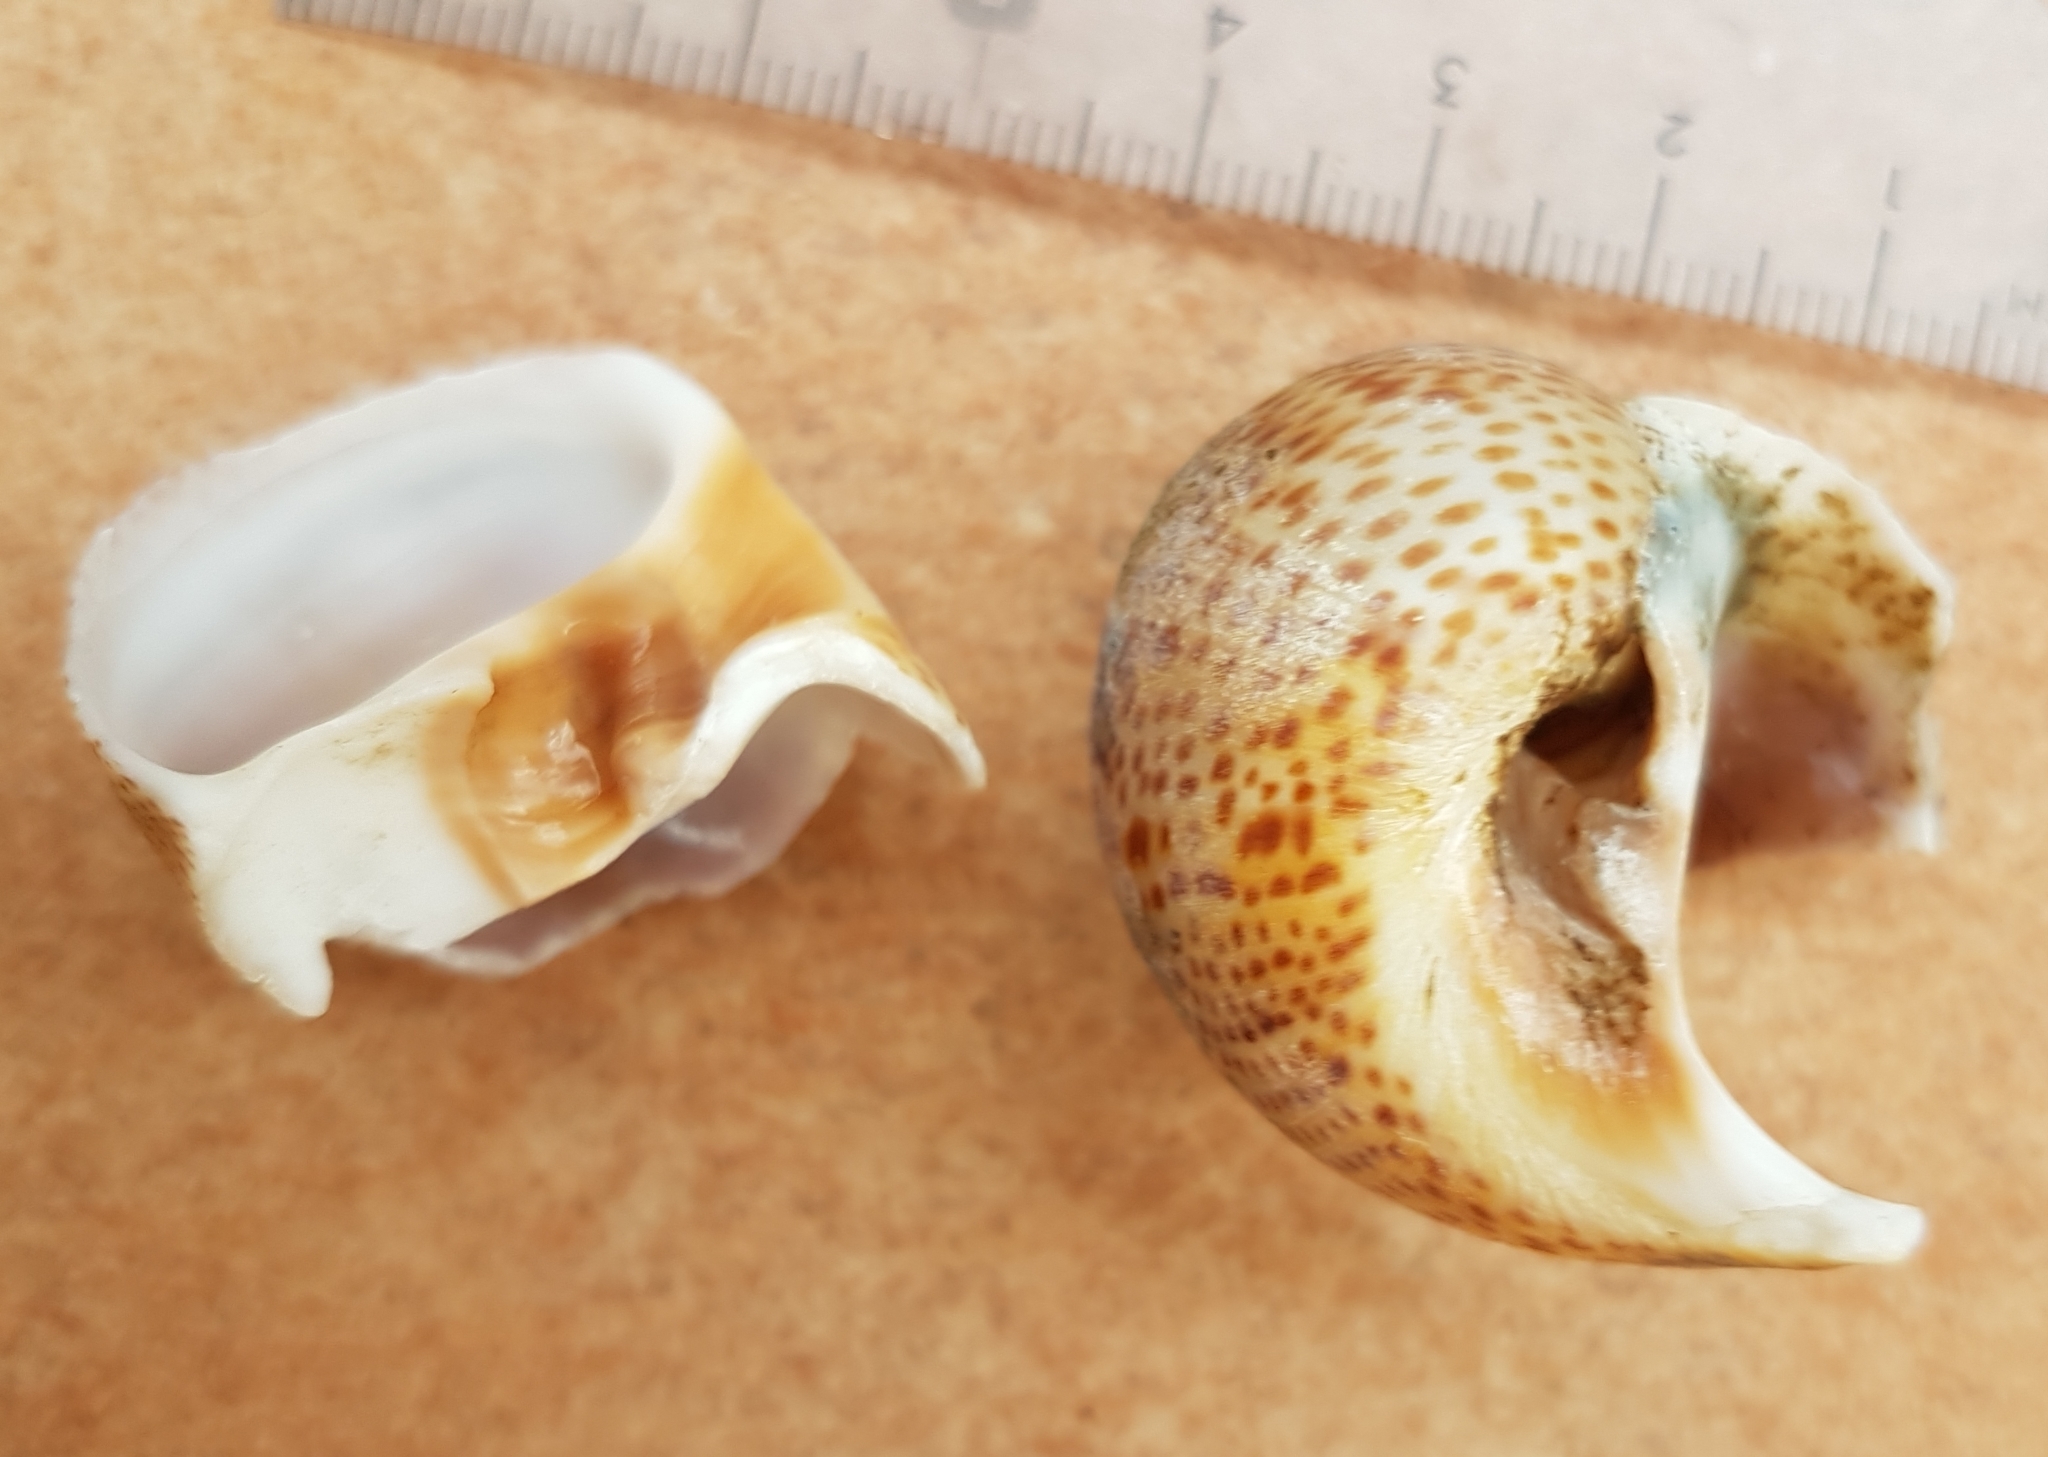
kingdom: Animalia
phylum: Mollusca
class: Gastropoda
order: Littorinimorpha
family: Naticidae
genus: Naticarius
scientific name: Naticarius stercusmuscarum
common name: Fly-speck moonsnail
